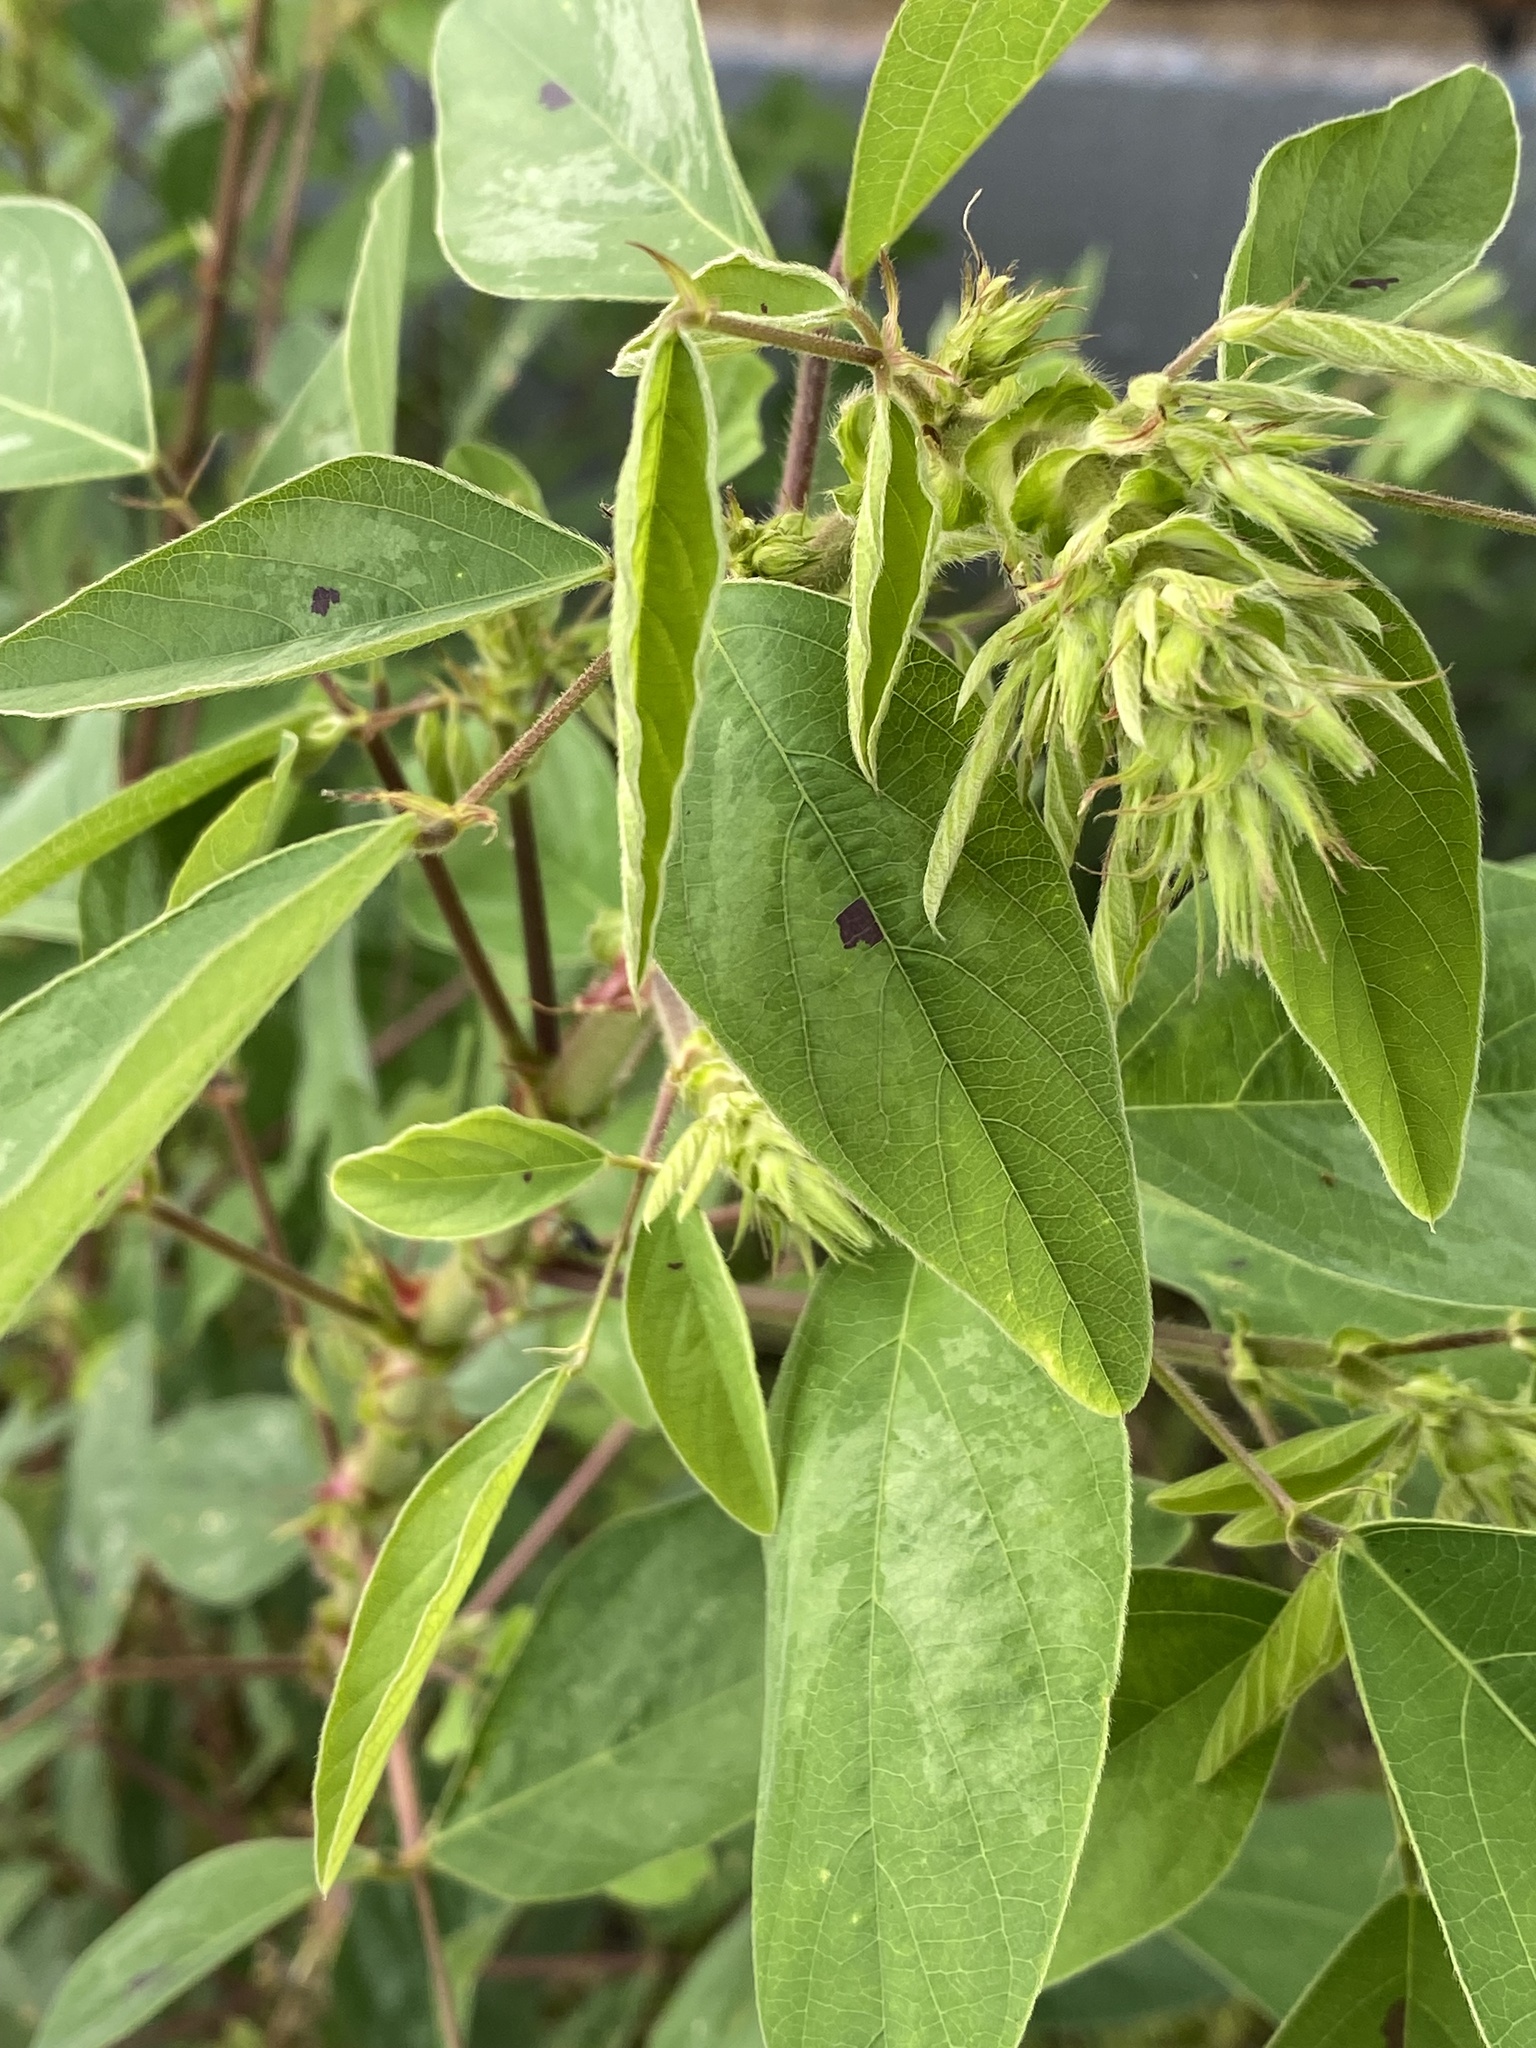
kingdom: Plantae
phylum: Tracheophyta
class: Magnoliopsida
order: Fabales
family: Fabaceae
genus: Desmodium
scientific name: Desmodium tortuosum
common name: Dixie ticktrefoil
